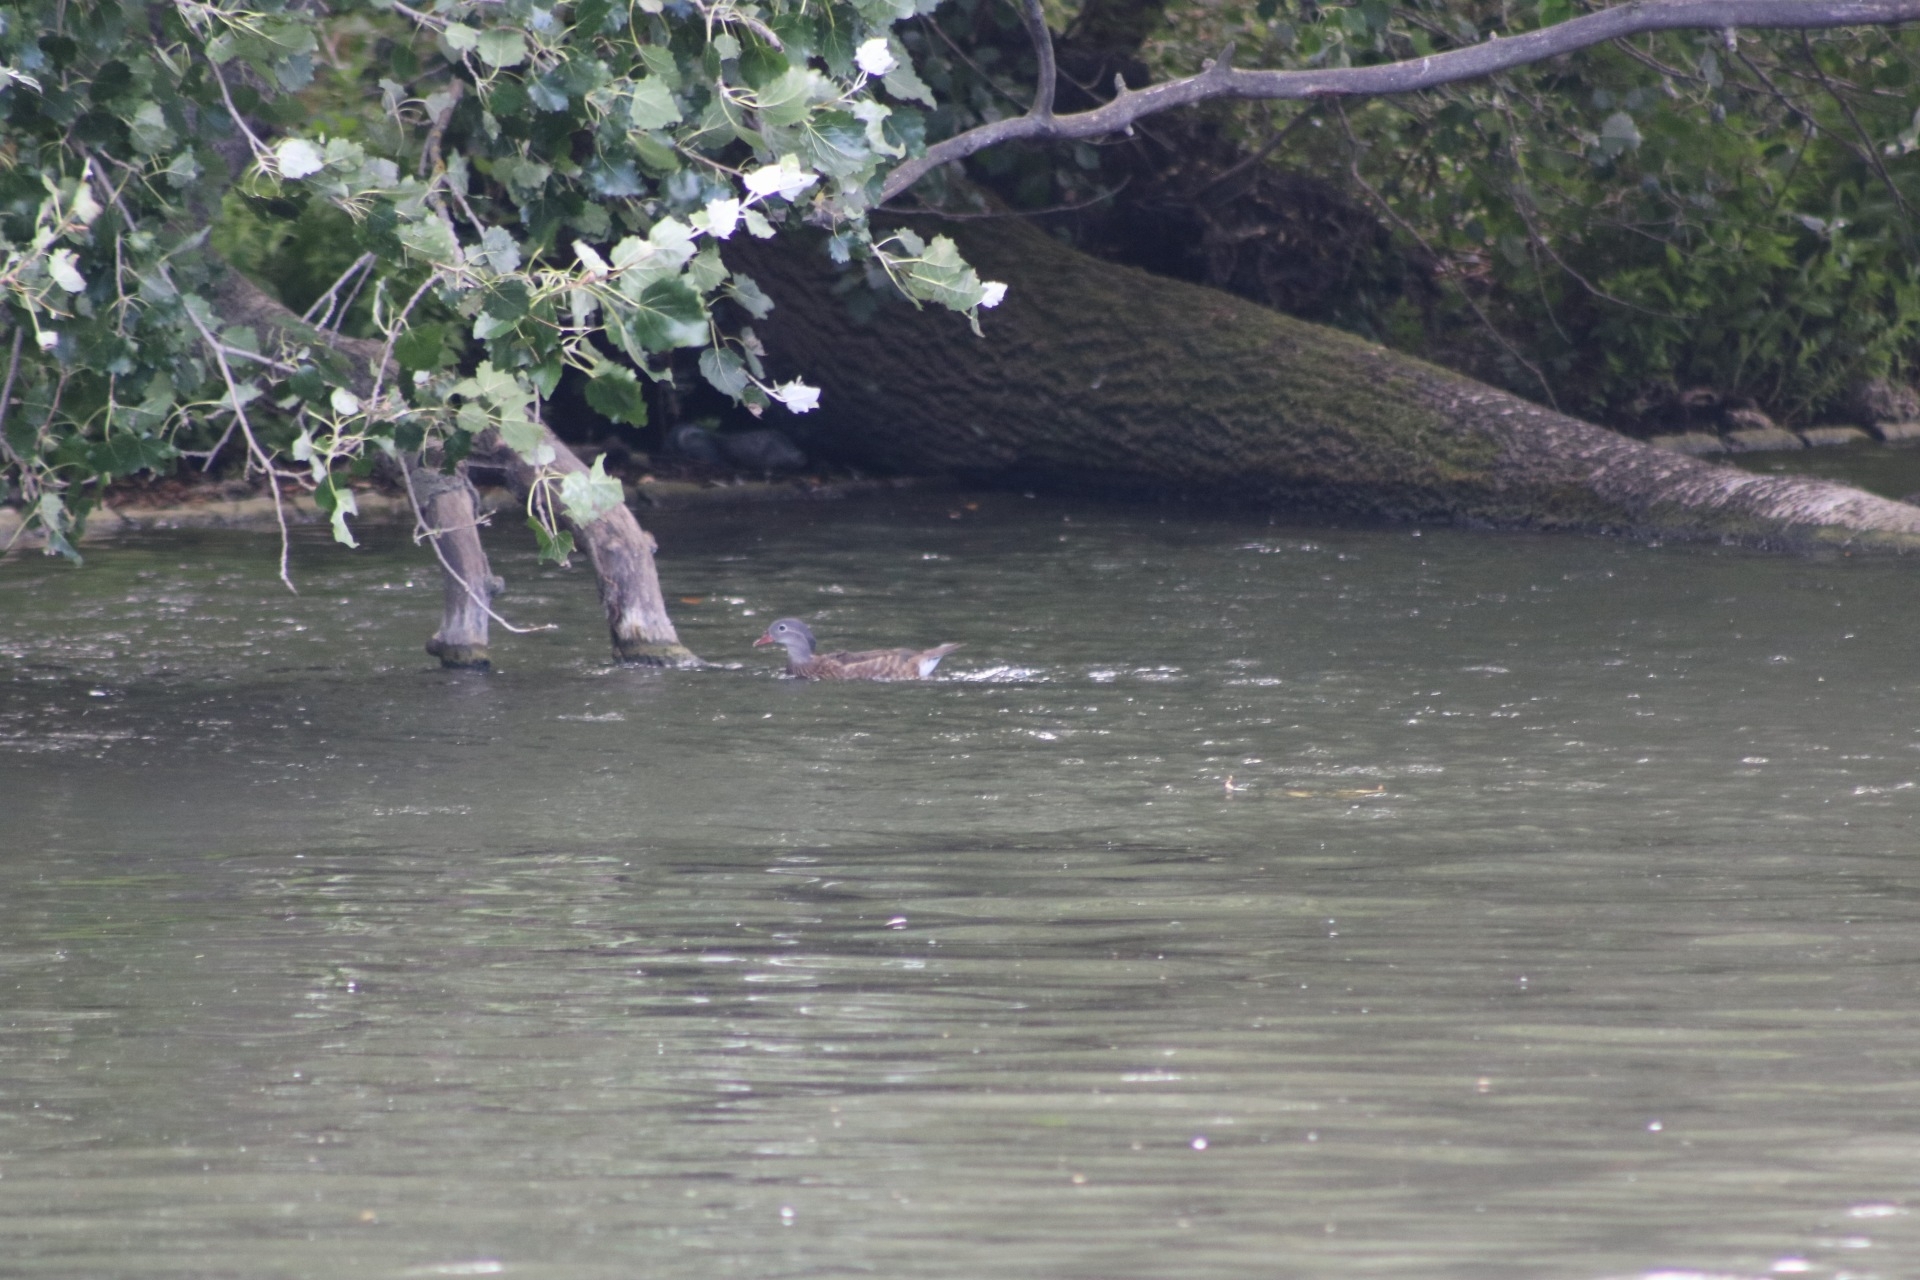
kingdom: Animalia
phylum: Chordata
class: Aves
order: Anseriformes
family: Anatidae
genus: Aix
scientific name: Aix galericulata
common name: Mandarin duck
